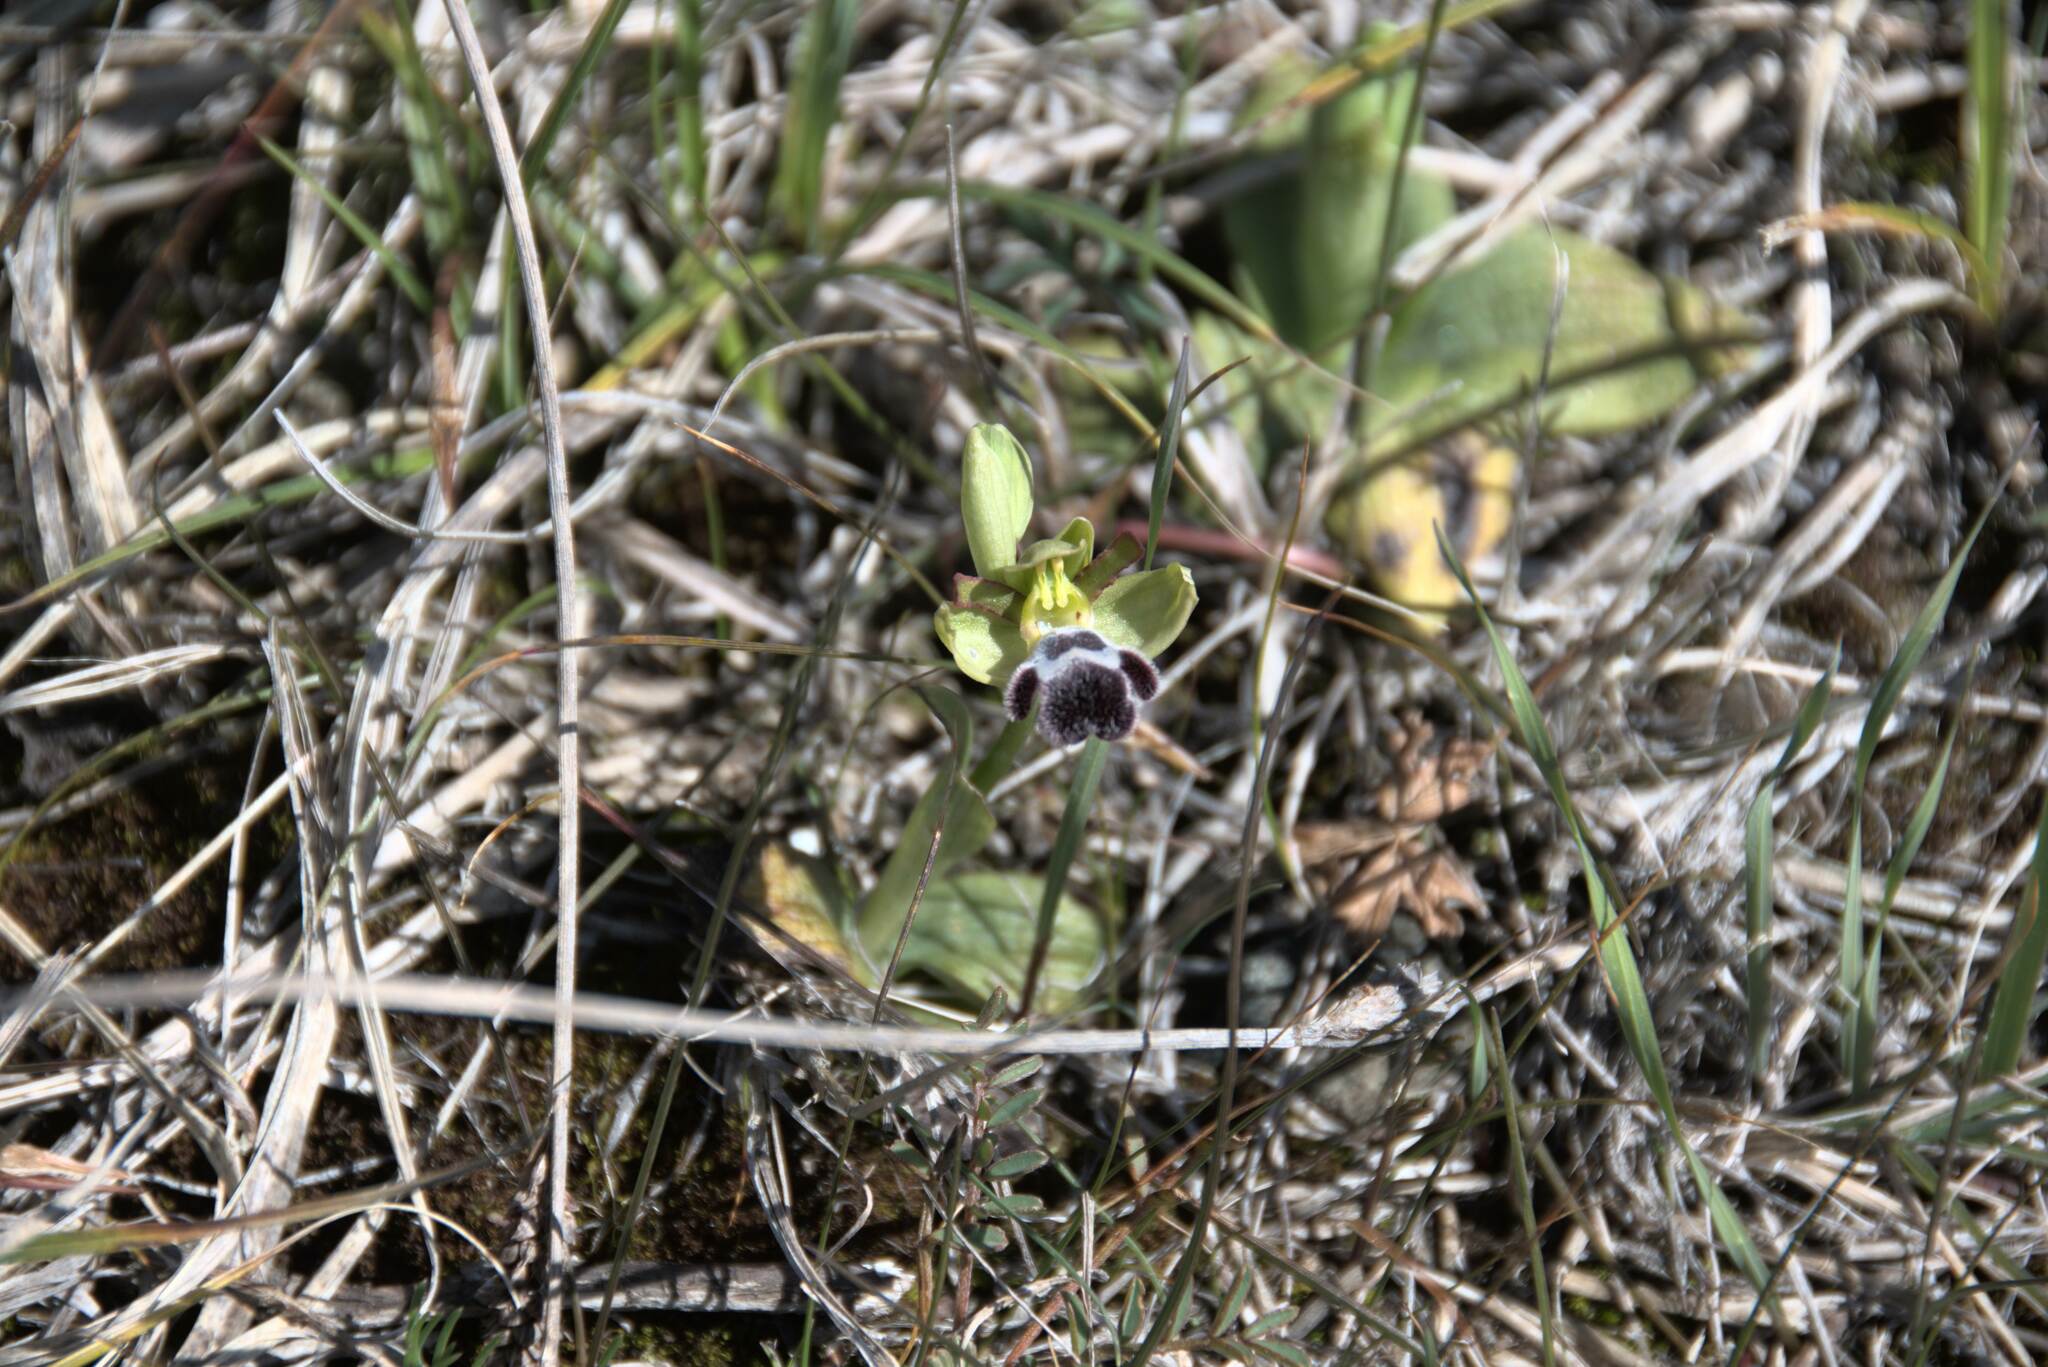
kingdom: Plantae
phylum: Tracheophyta
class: Liliopsida
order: Asparagales
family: Orchidaceae
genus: Ophrys
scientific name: Ophrys omegaifera
